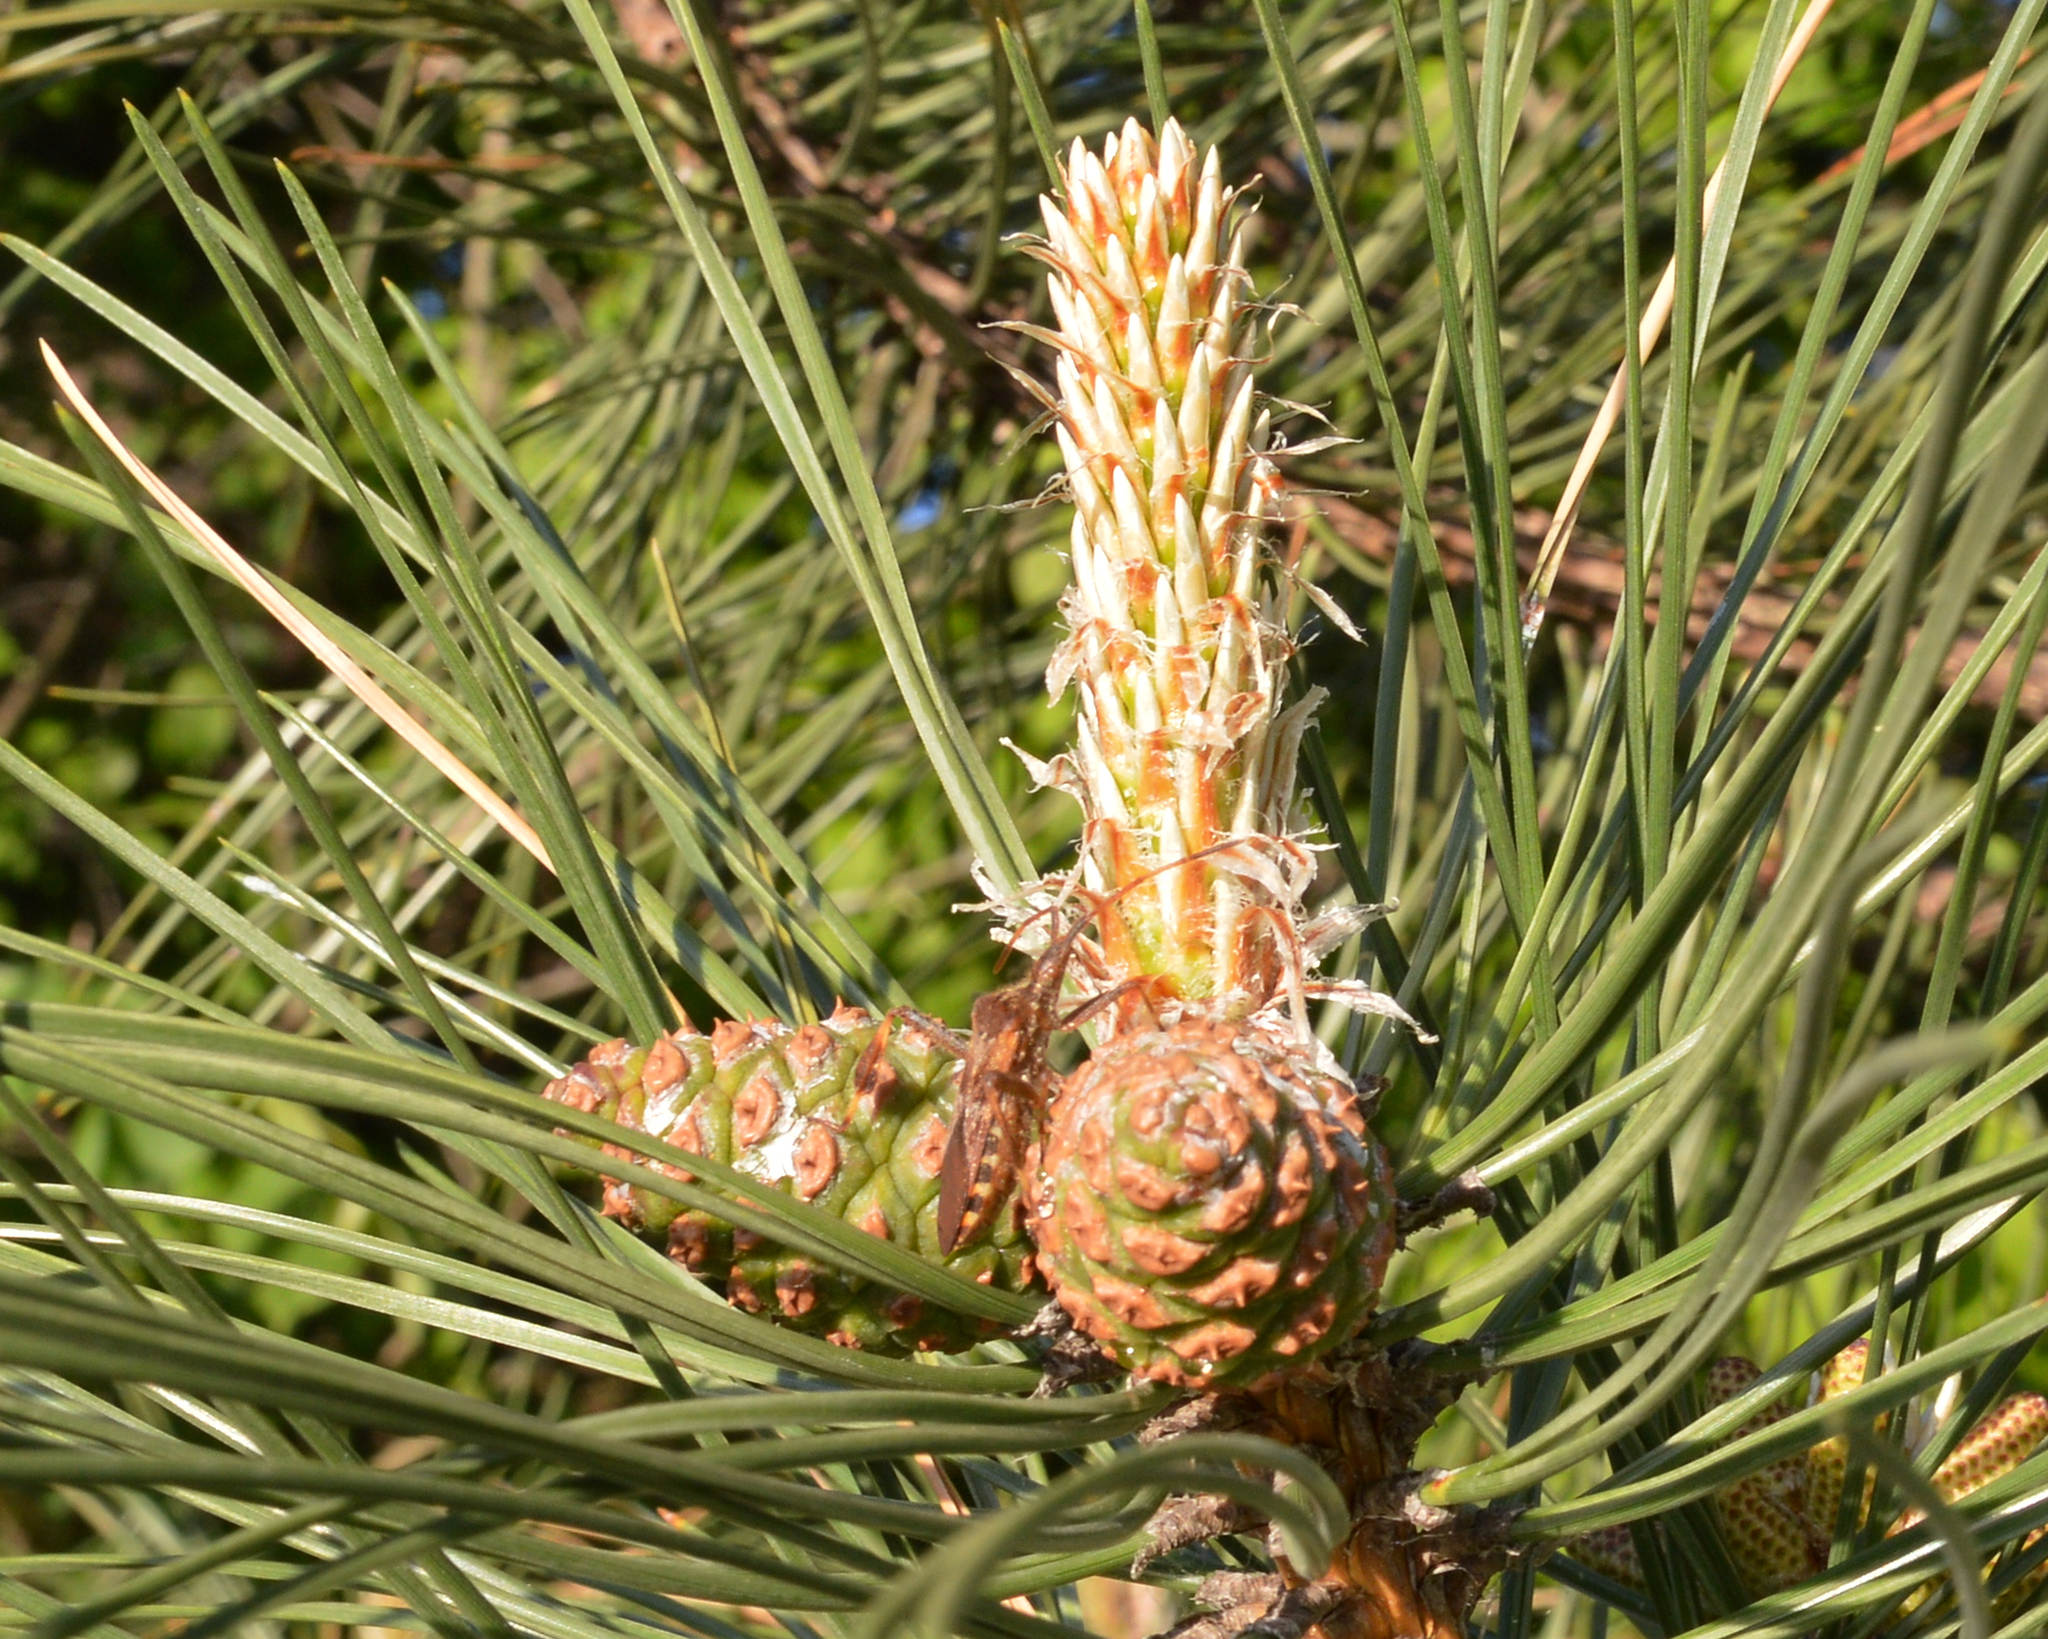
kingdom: Animalia
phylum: Arthropoda
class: Insecta
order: Hemiptera
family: Coreidae
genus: Leptoglossus
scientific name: Leptoglossus occidentalis
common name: Western conifer-seed bug
